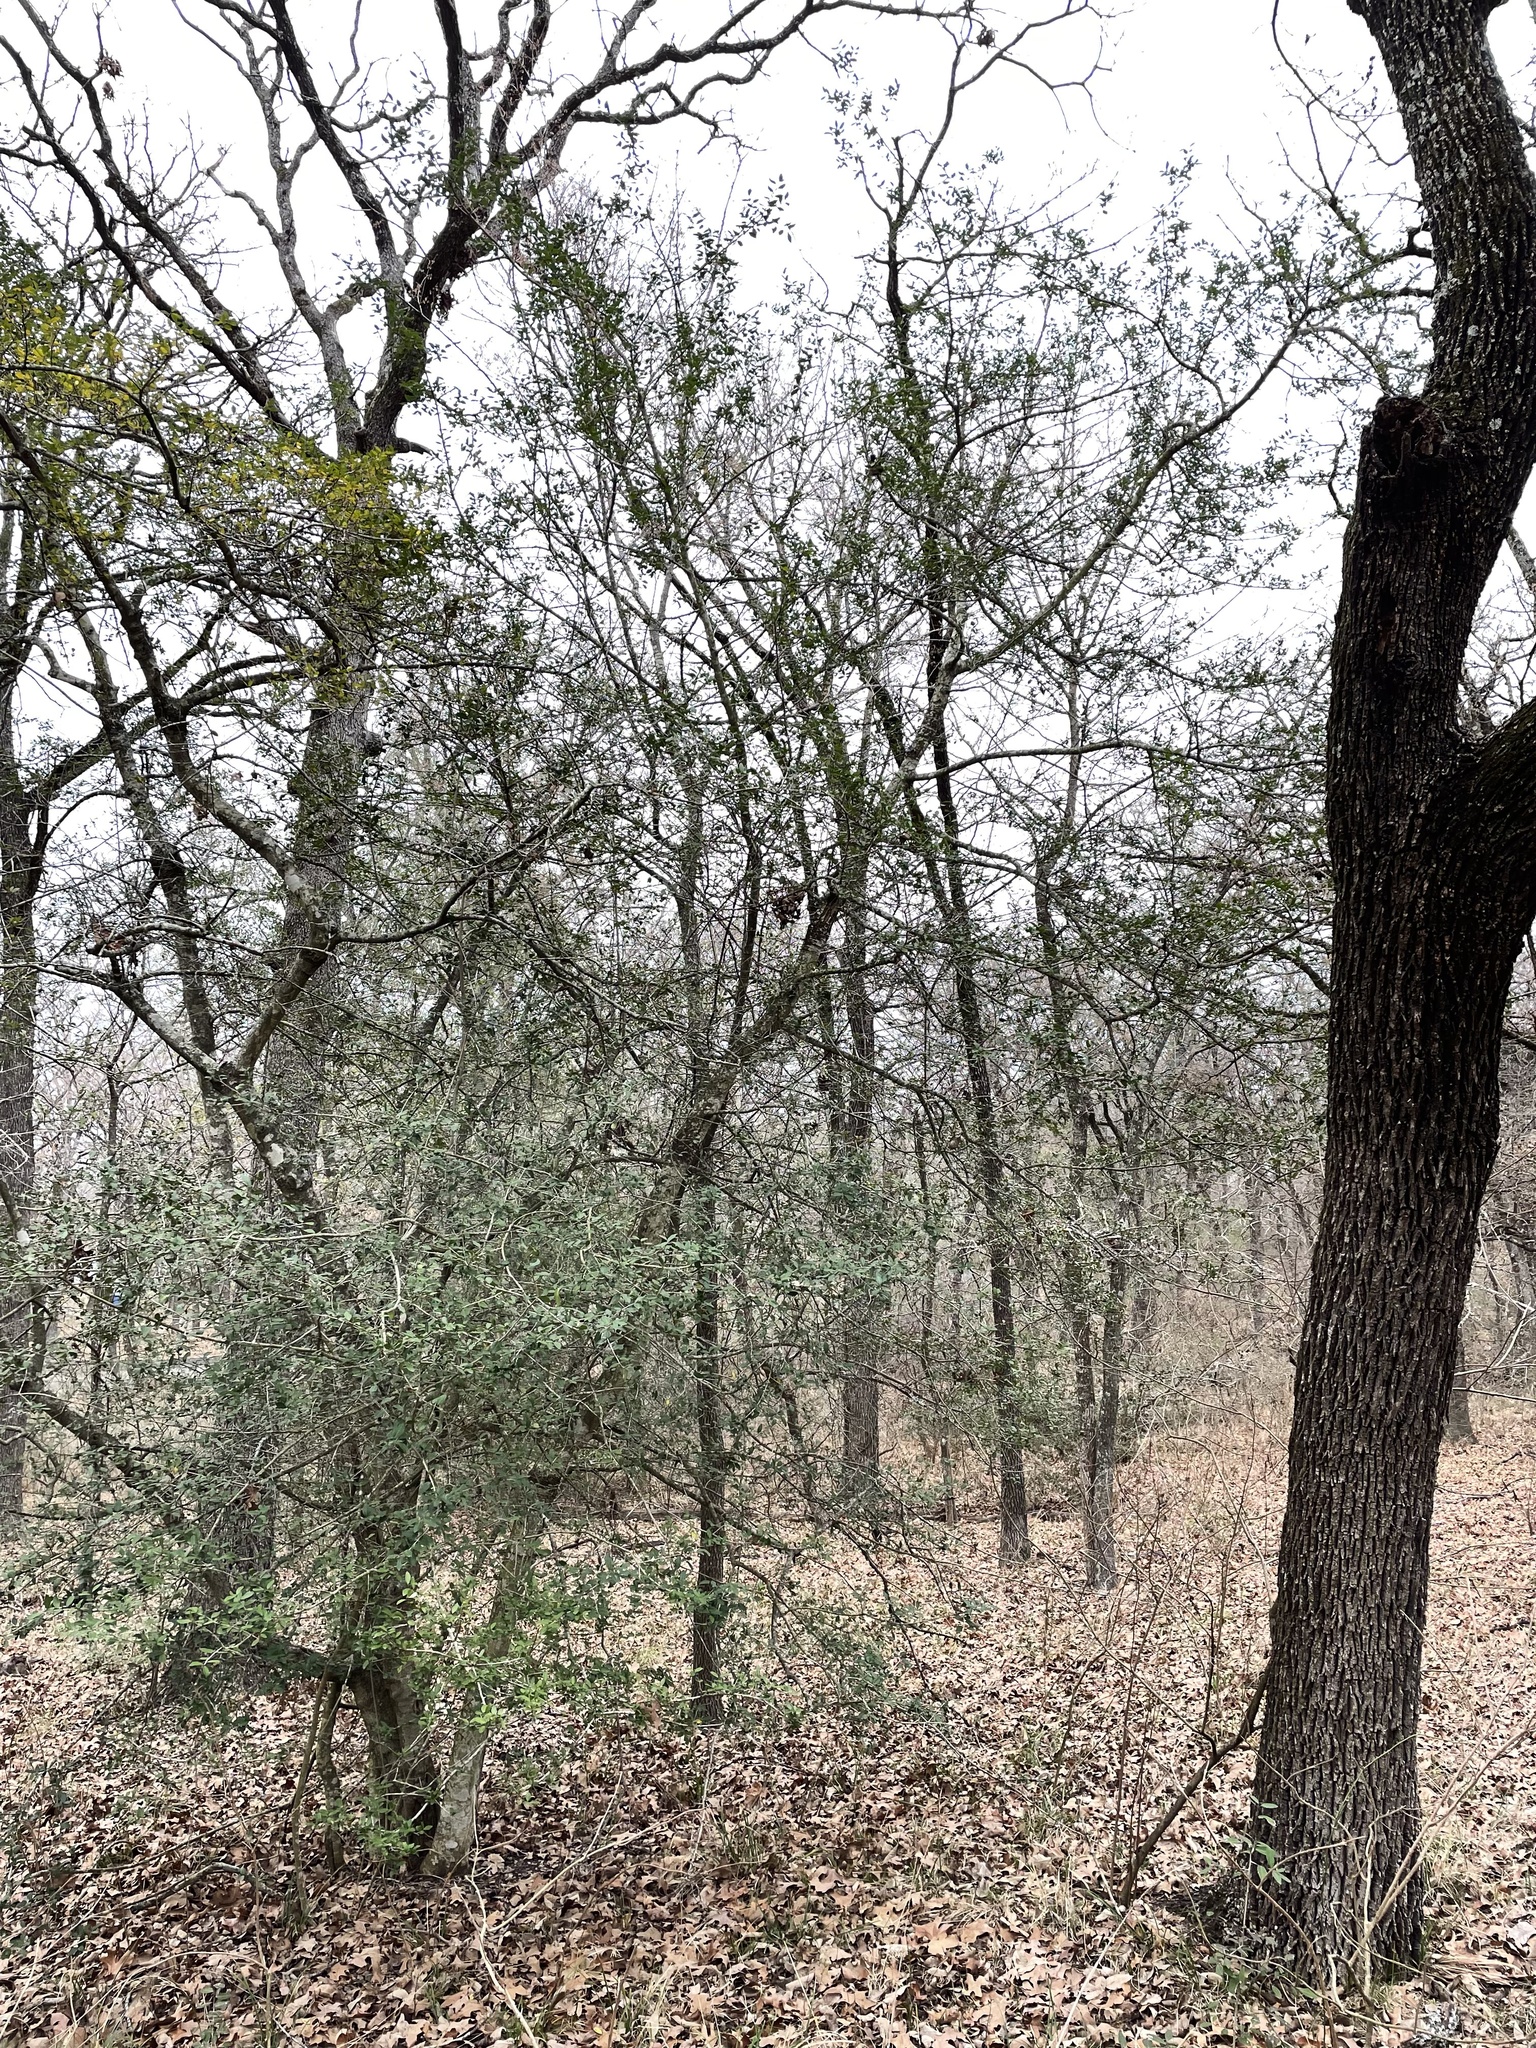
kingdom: Plantae
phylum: Tracheophyta
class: Magnoliopsida
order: Aquifoliales
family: Aquifoliaceae
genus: Ilex
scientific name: Ilex vomitoria
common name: Yaupon holly
